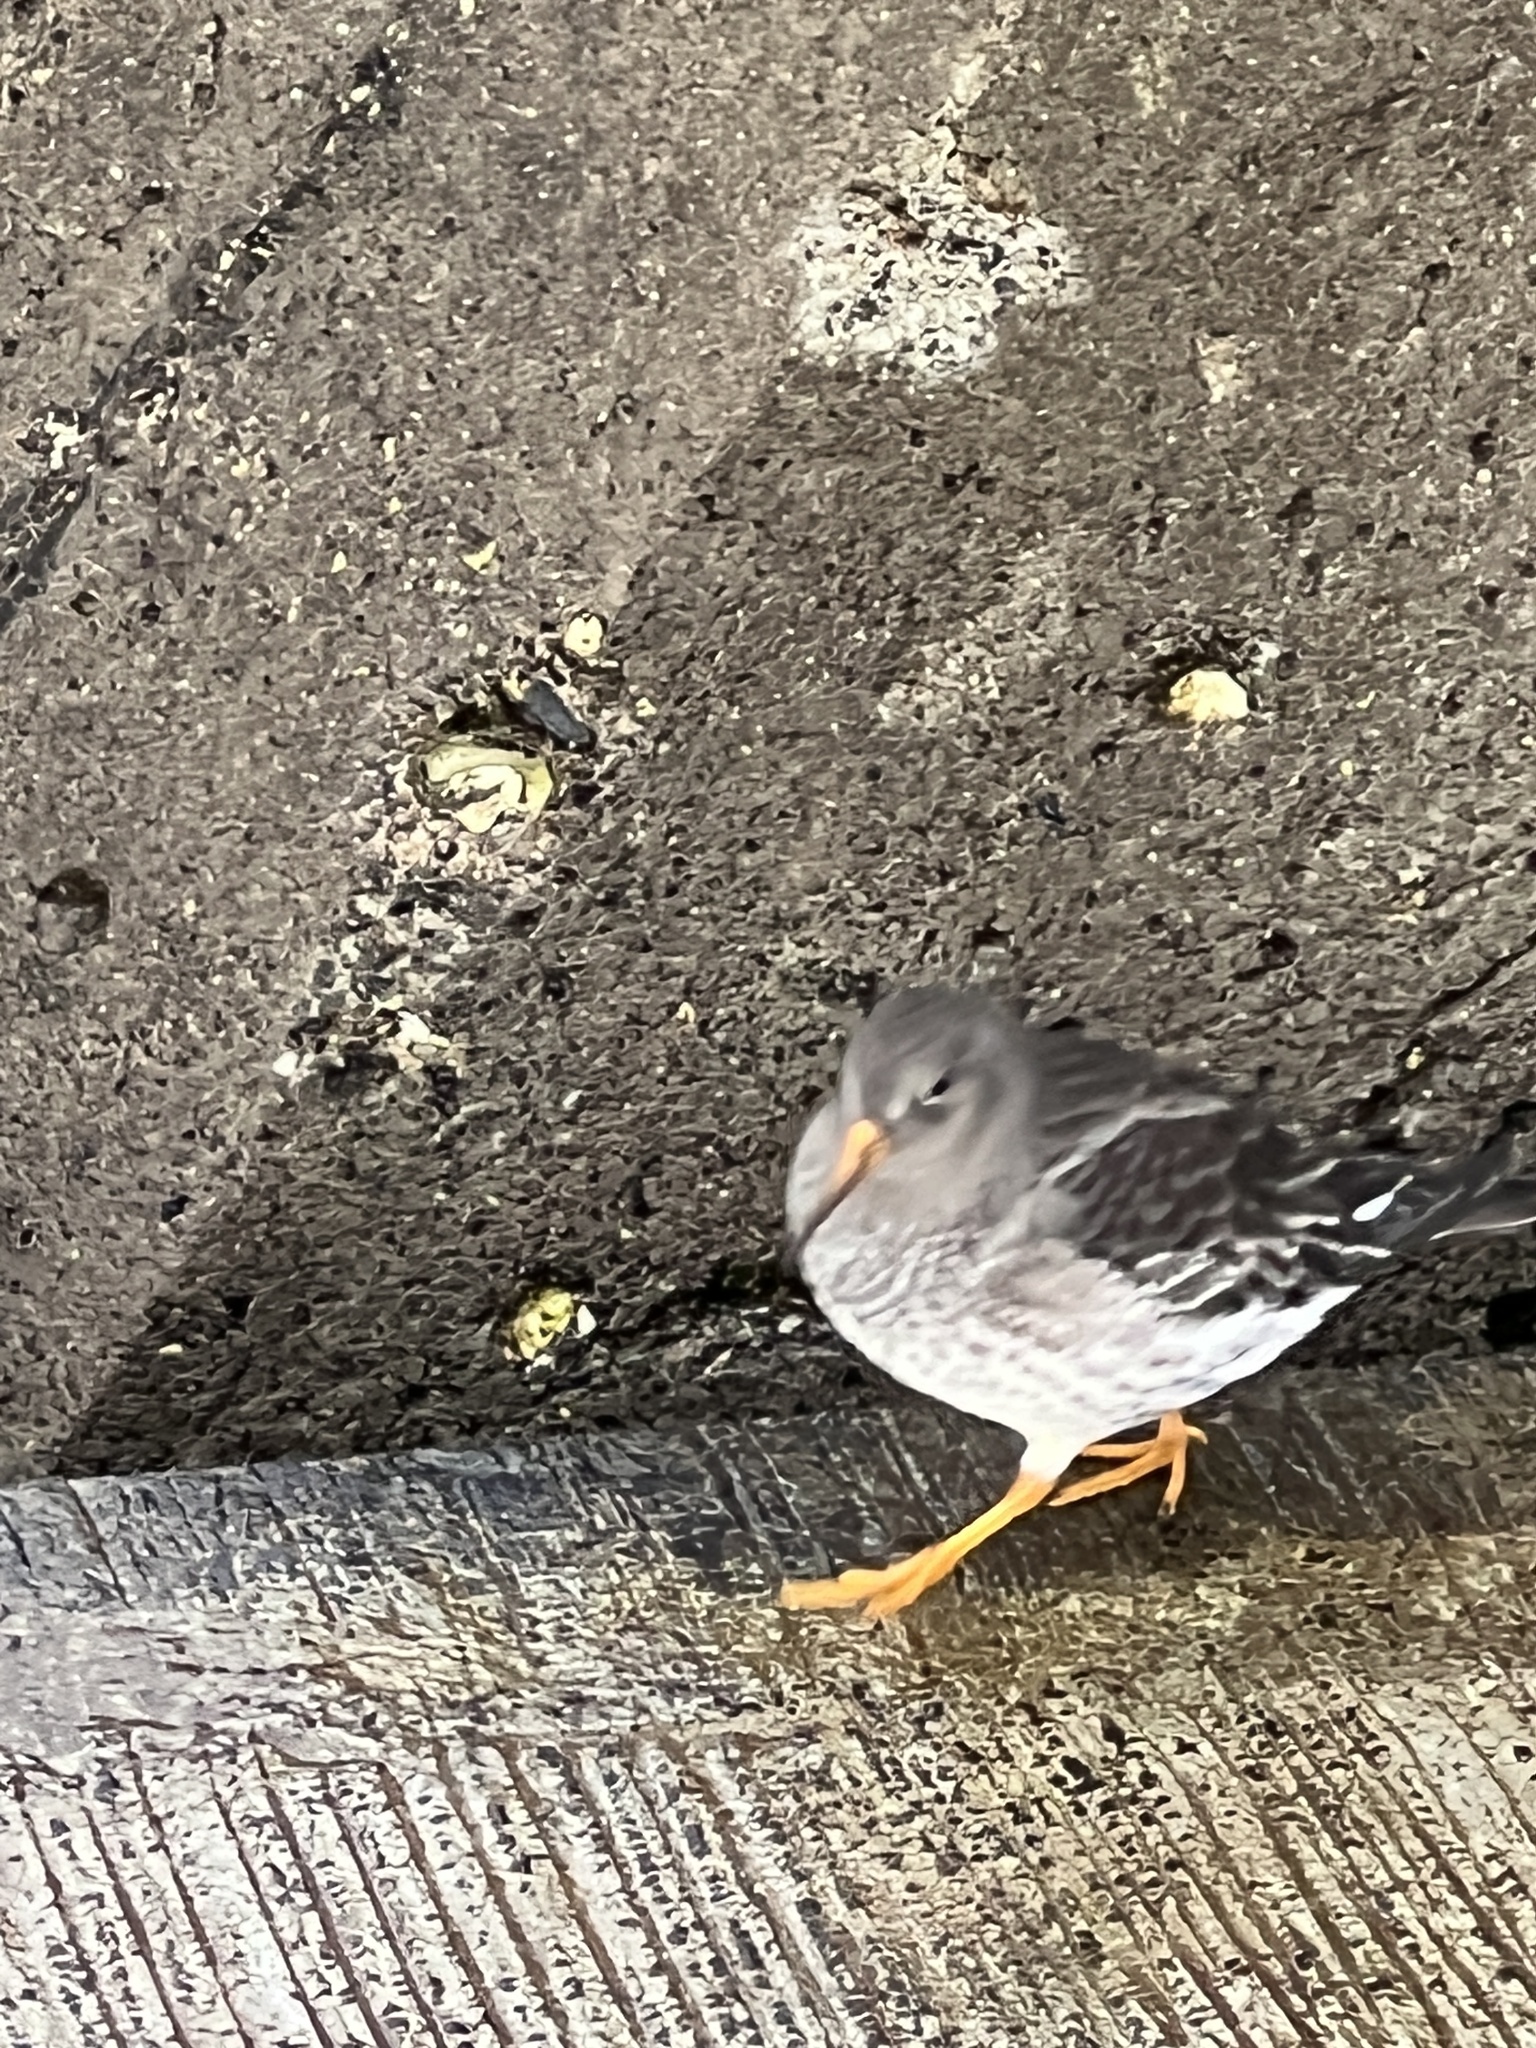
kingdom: Animalia
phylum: Chordata
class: Aves
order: Charadriiformes
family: Scolopacidae
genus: Calidris
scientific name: Calidris maritima
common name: Purple sandpiper
